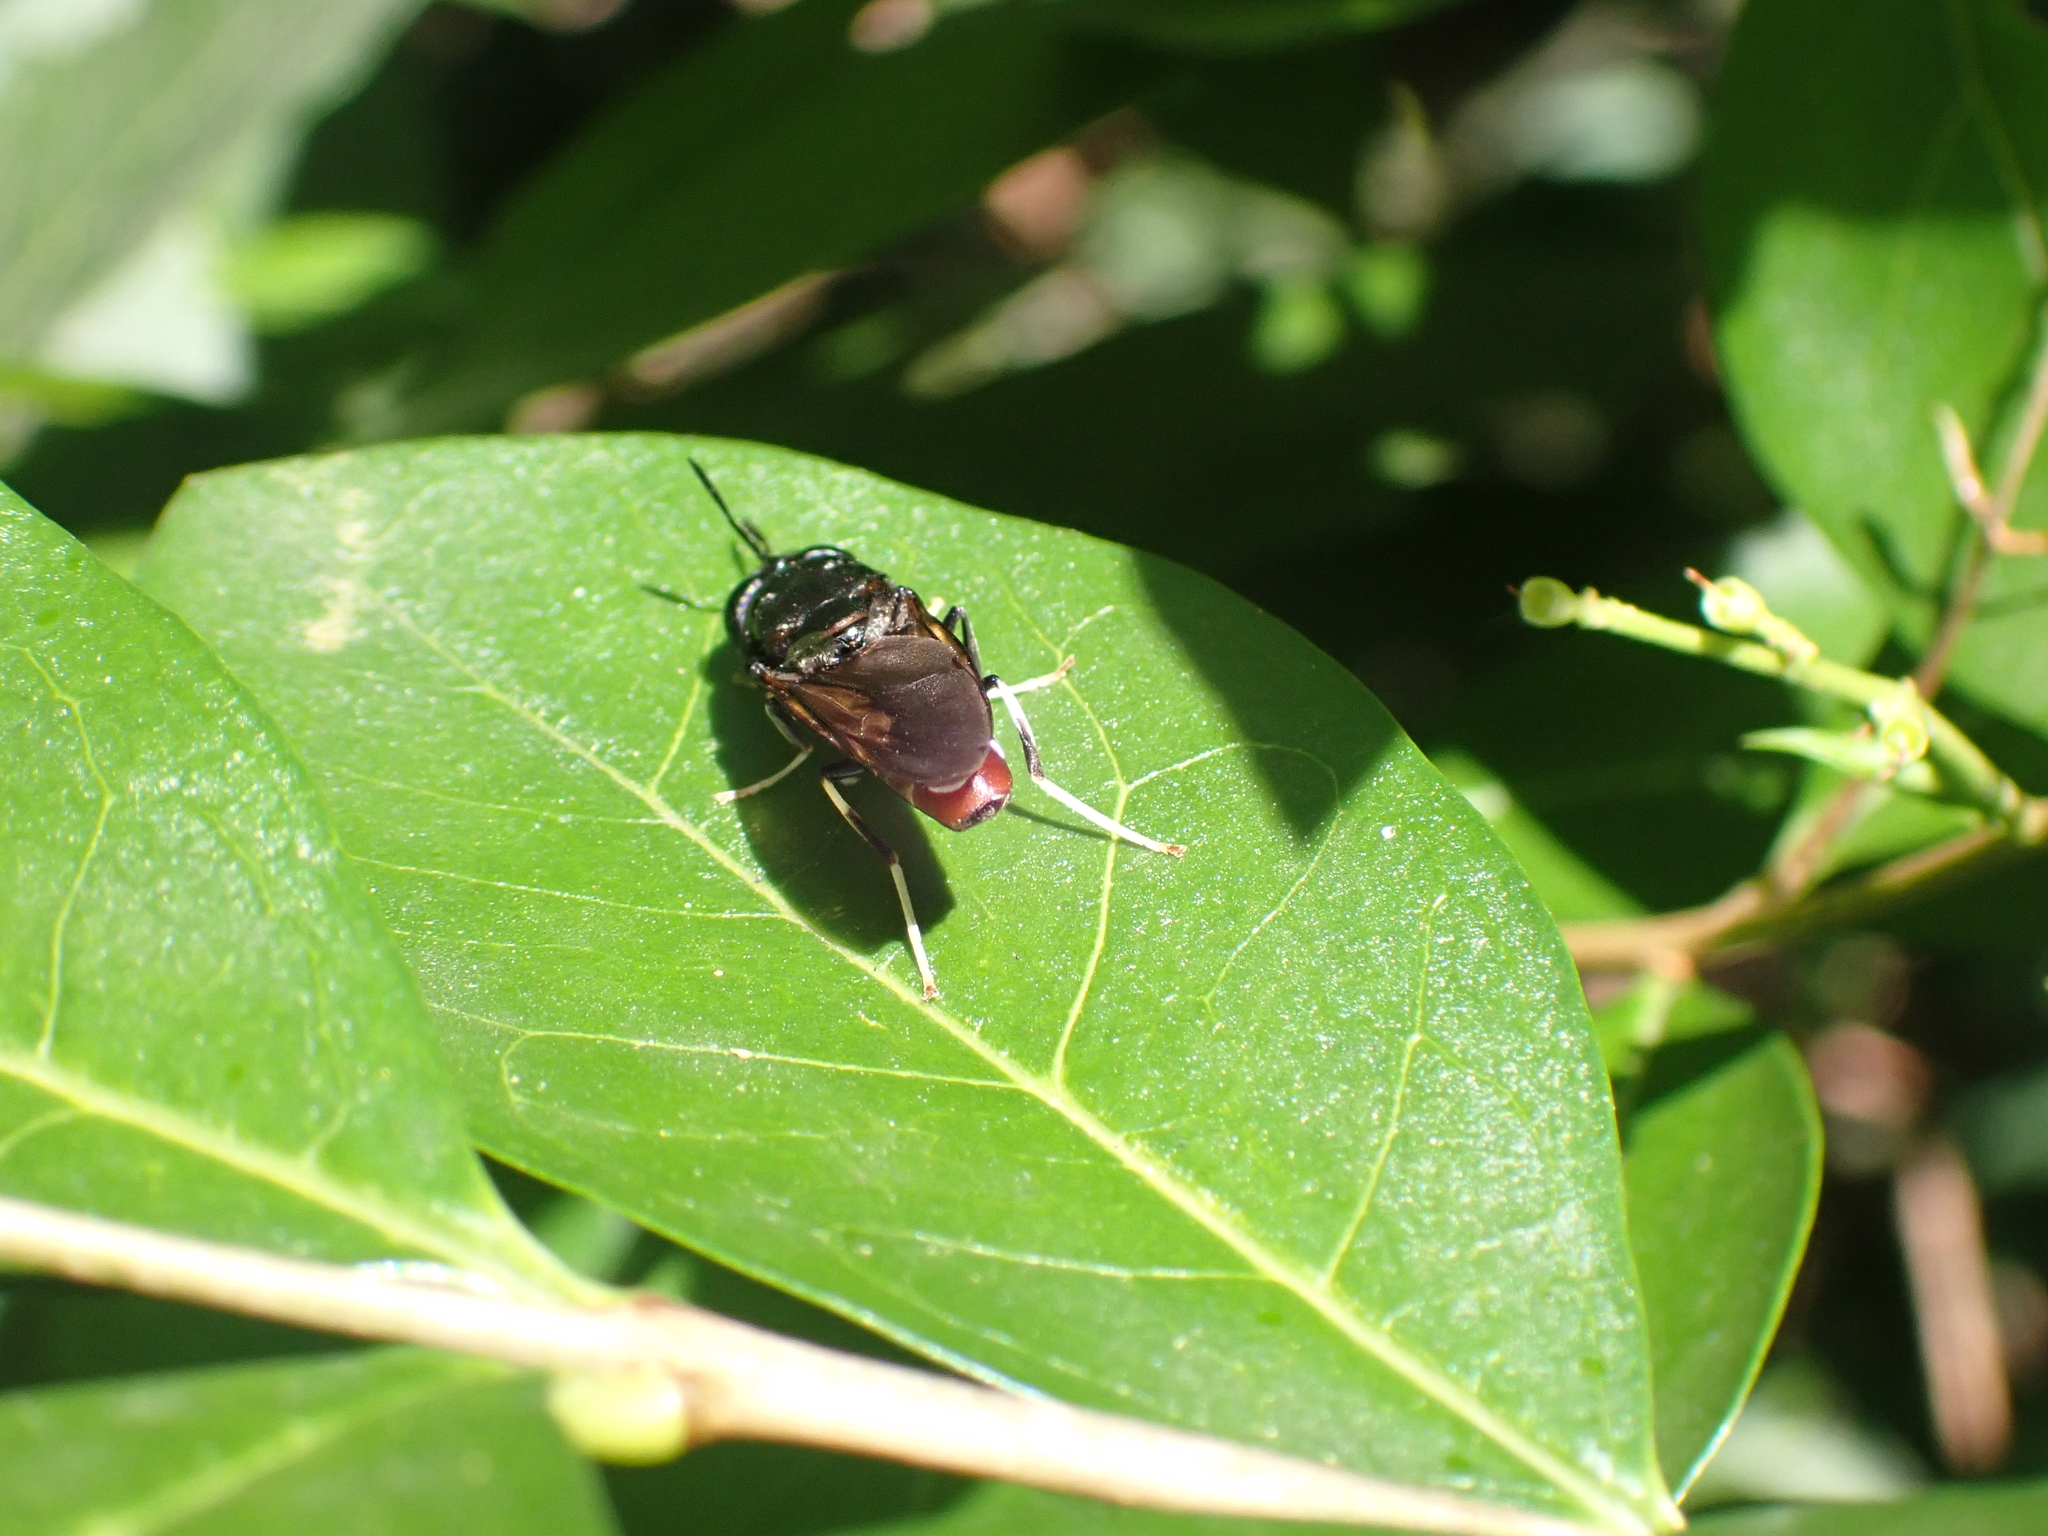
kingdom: Animalia
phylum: Arthropoda
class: Insecta
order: Diptera
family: Stratiomyidae
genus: Hermetia
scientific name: Hermetia illucens
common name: Black soldier fly
